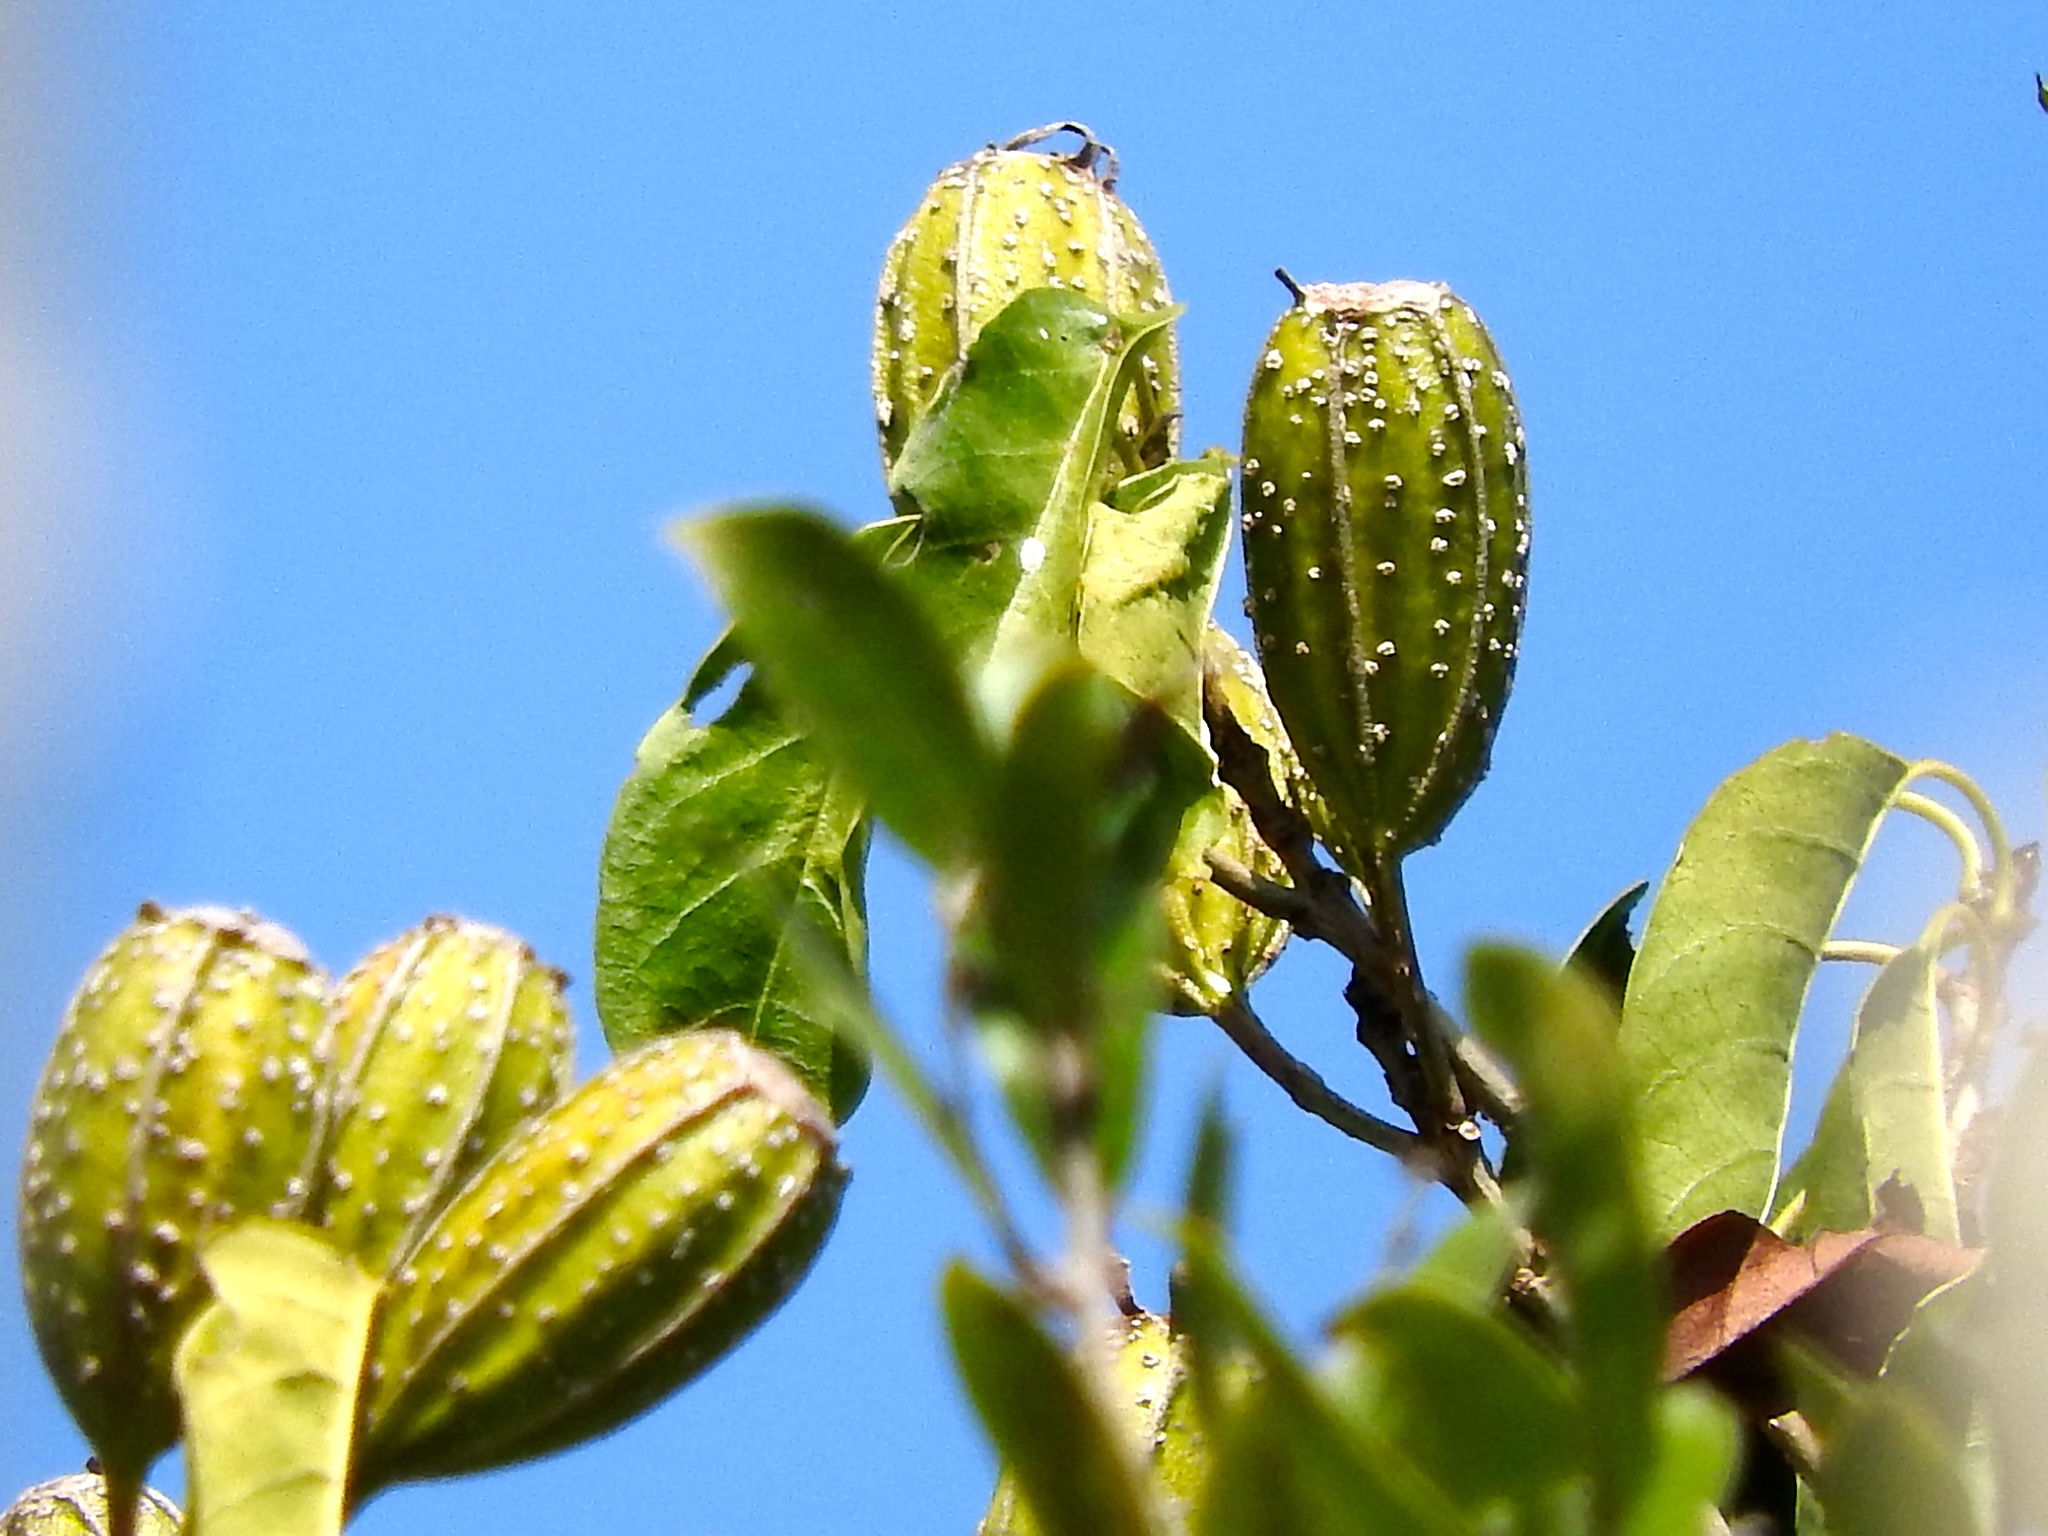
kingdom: Plantae
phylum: Tracheophyta
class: Magnoliopsida
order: Gentianales
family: Rubiaceae
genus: Hintonia
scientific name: Hintonia latiflora
